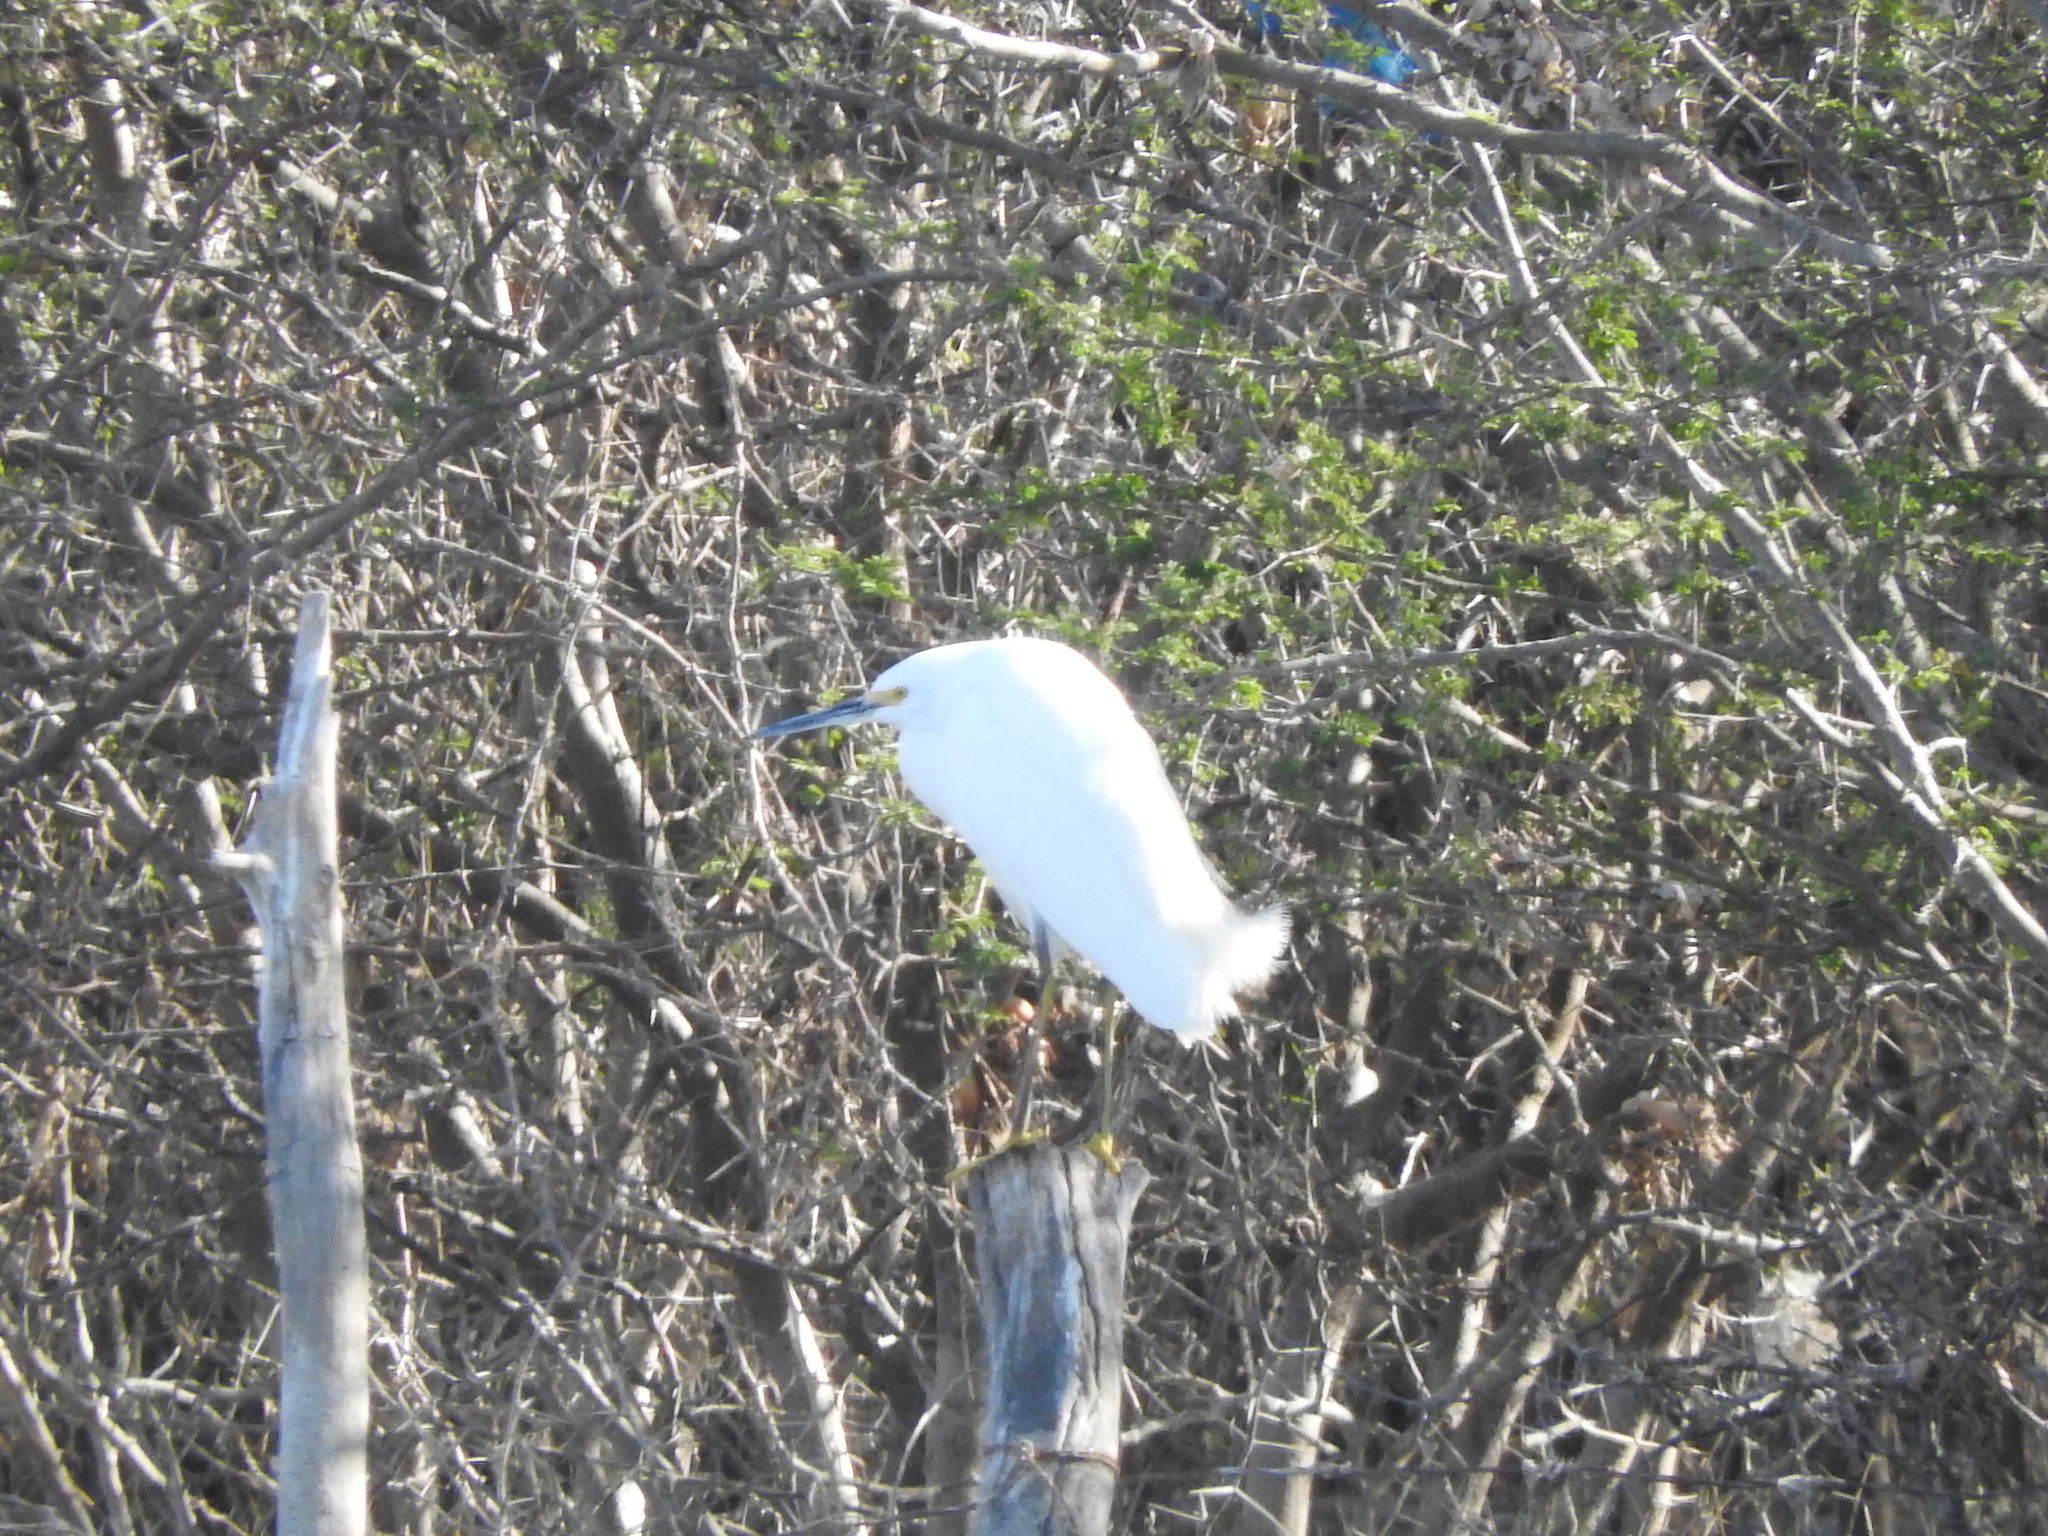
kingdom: Animalia
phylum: Chordata
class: Aves
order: Pelecaniformes
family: Ardeidae
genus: Egretta
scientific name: Egretta thula
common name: Snowy egret
